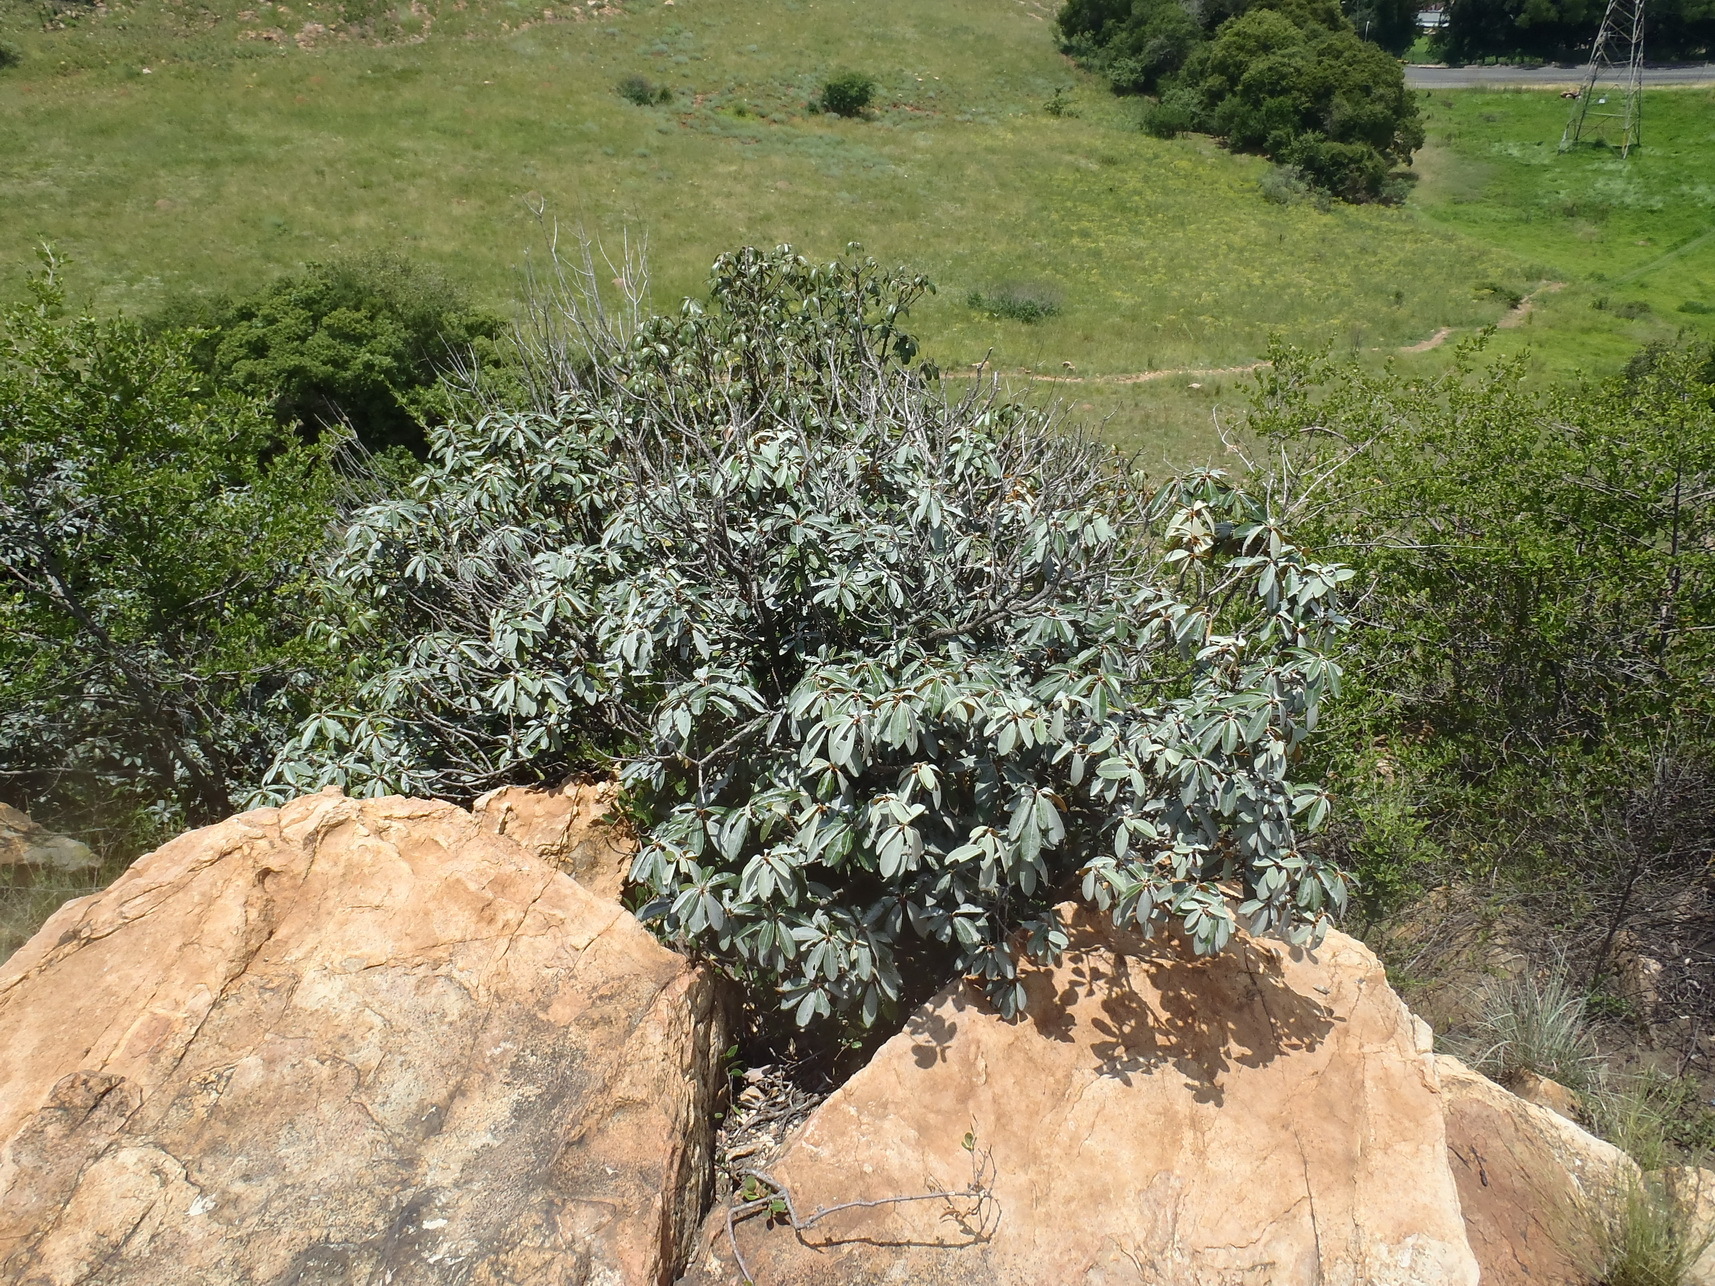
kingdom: Plantae
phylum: Tracheophyta
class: Magnoliopsida
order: Ericales
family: Sapotaceae
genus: Englerophytum
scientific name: Englerophytum magalismontanum
